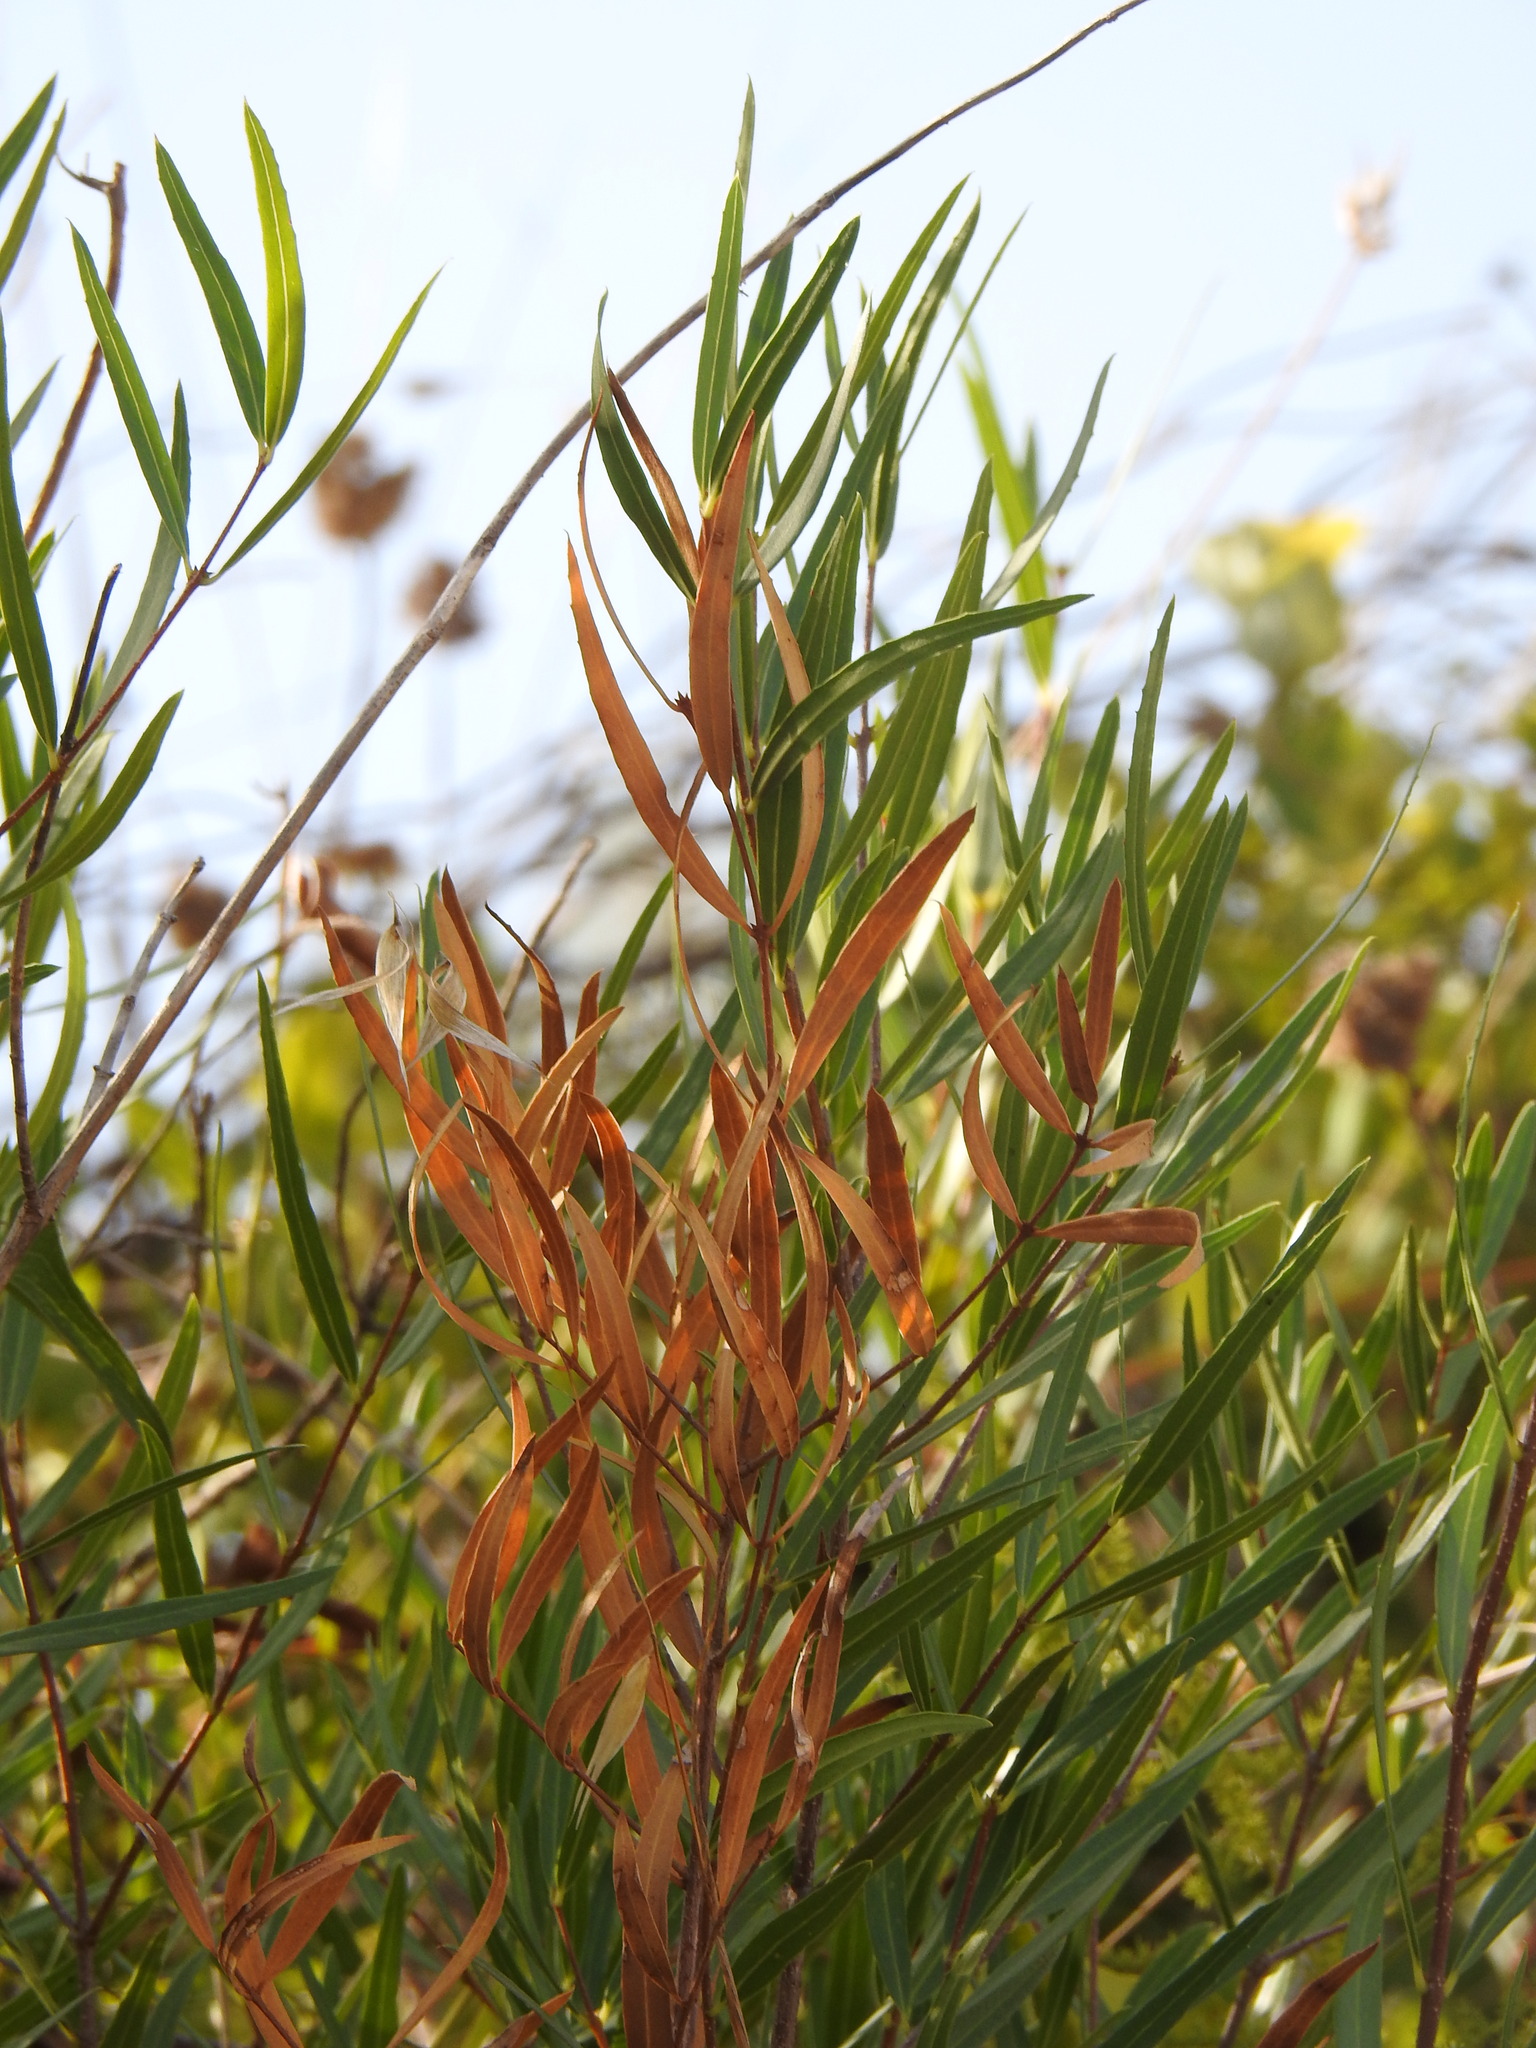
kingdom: Plantae
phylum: Tracheophyta
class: Magnoliopsida
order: Lamiales
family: Oleaceae
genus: Phillyrea
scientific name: Phillyrea angustifolia
